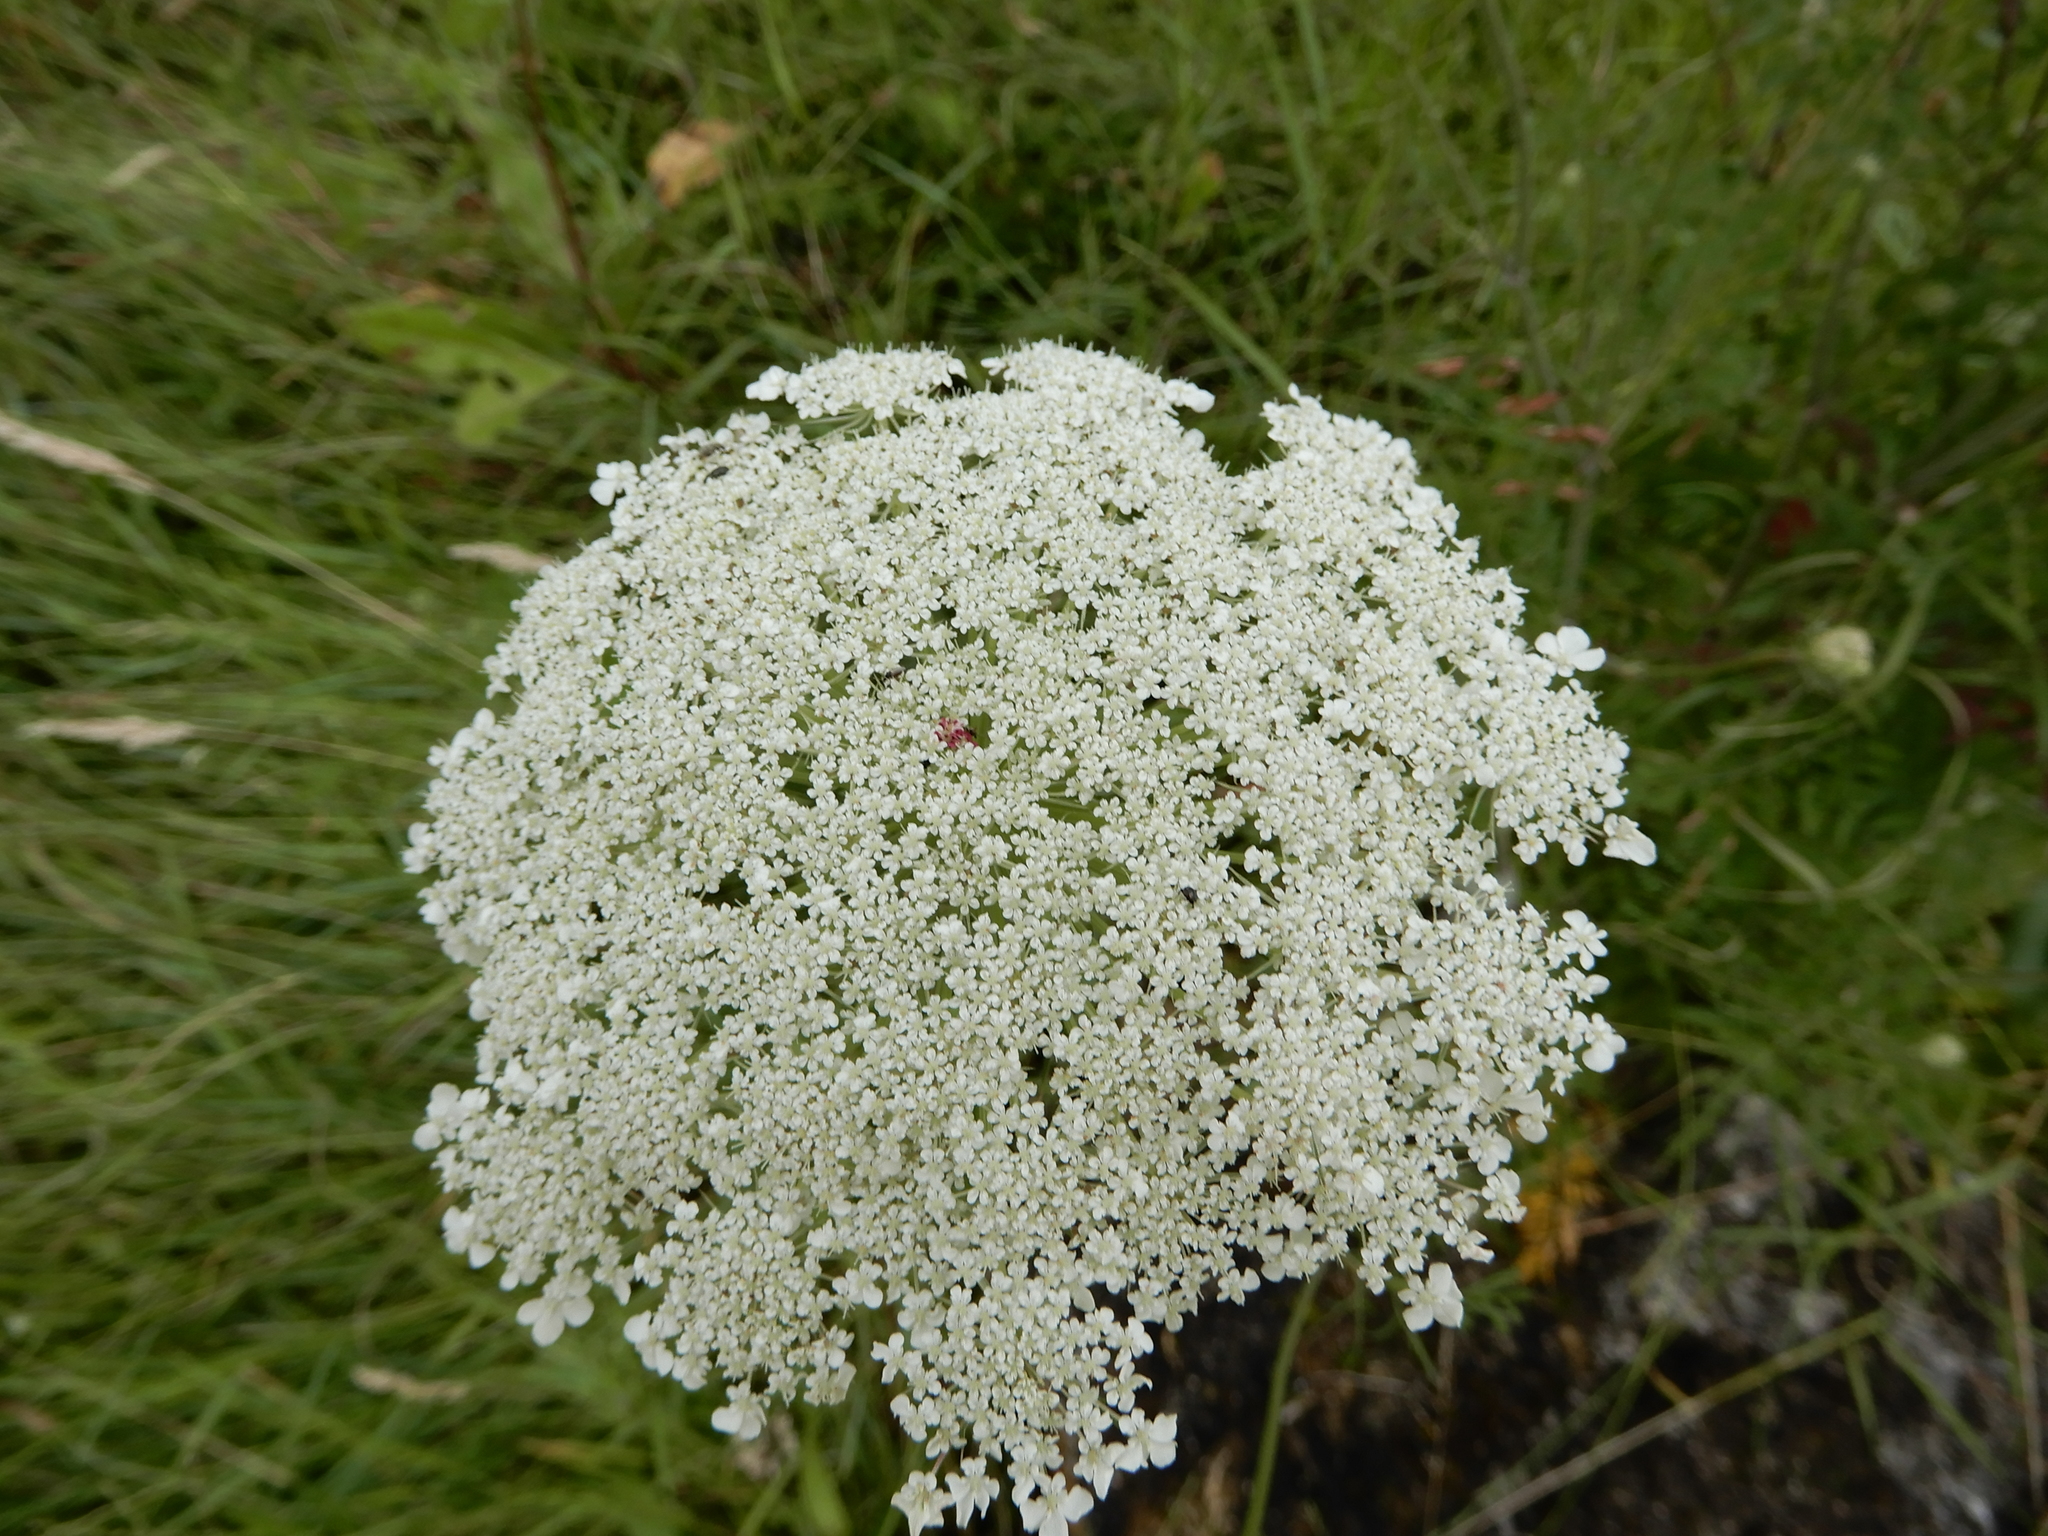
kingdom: Plantae
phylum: Tracheophyta
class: Magnoliopsida
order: Apiales
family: Apiaceae
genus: Daucus
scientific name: Daucus carota
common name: Wild carrot
